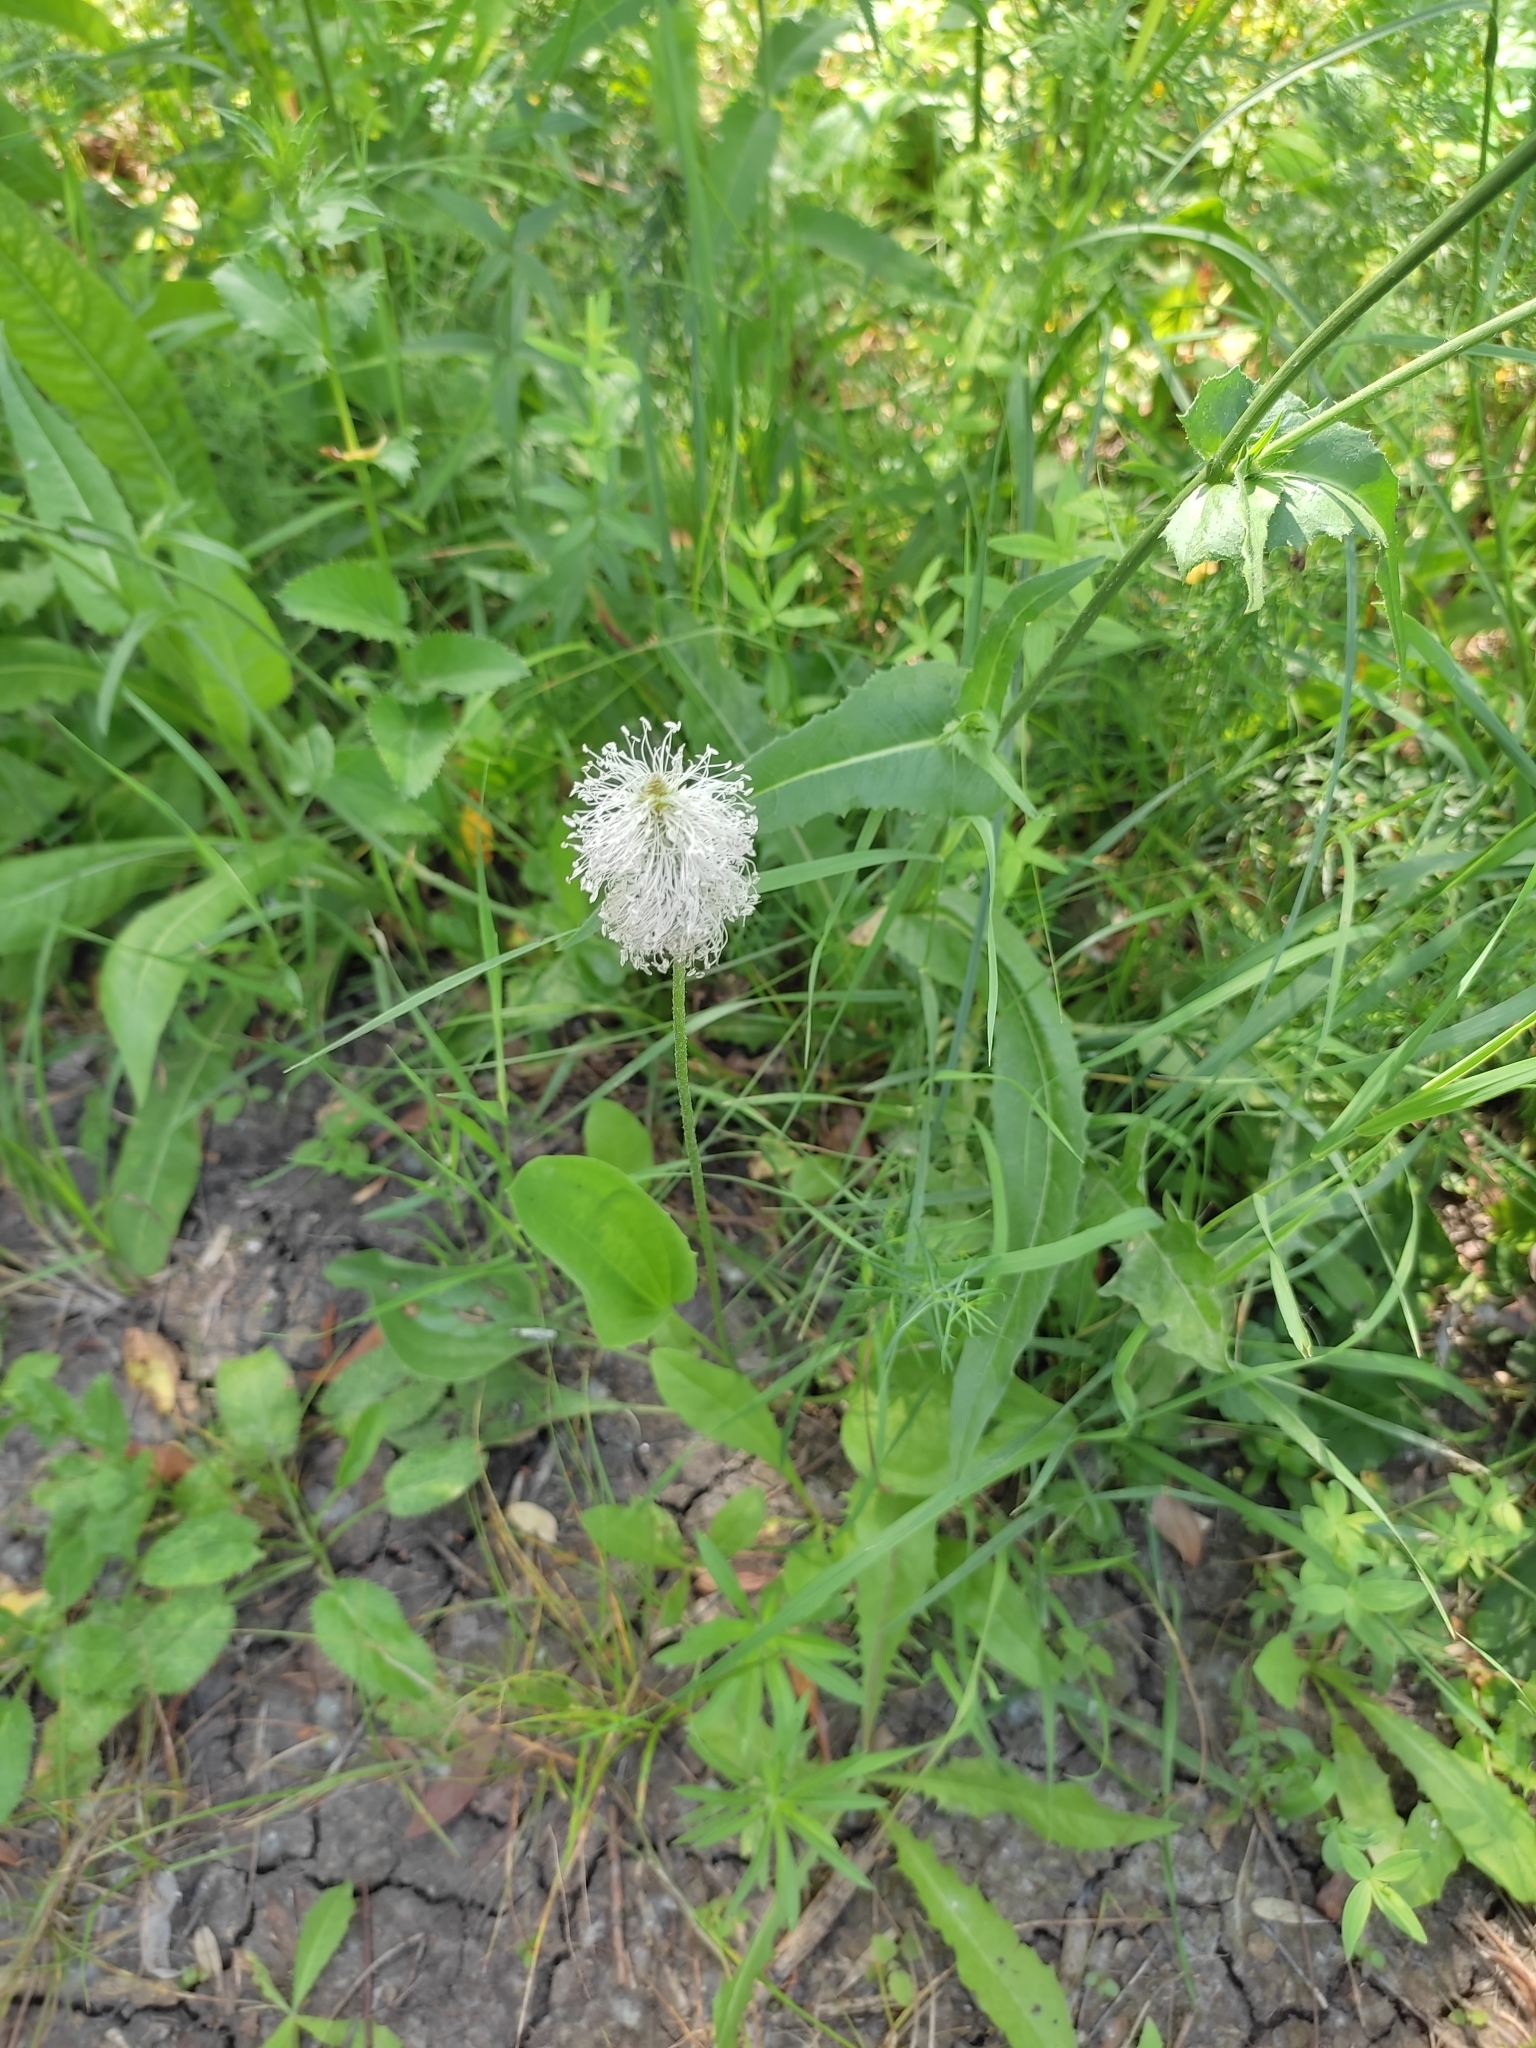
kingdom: Plantae
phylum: Tracheophyta
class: Magnoliopsida
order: Lamiales
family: Plantaginaceae
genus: Plantago
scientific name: Plantago lanceolata
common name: Ribwort plantain
